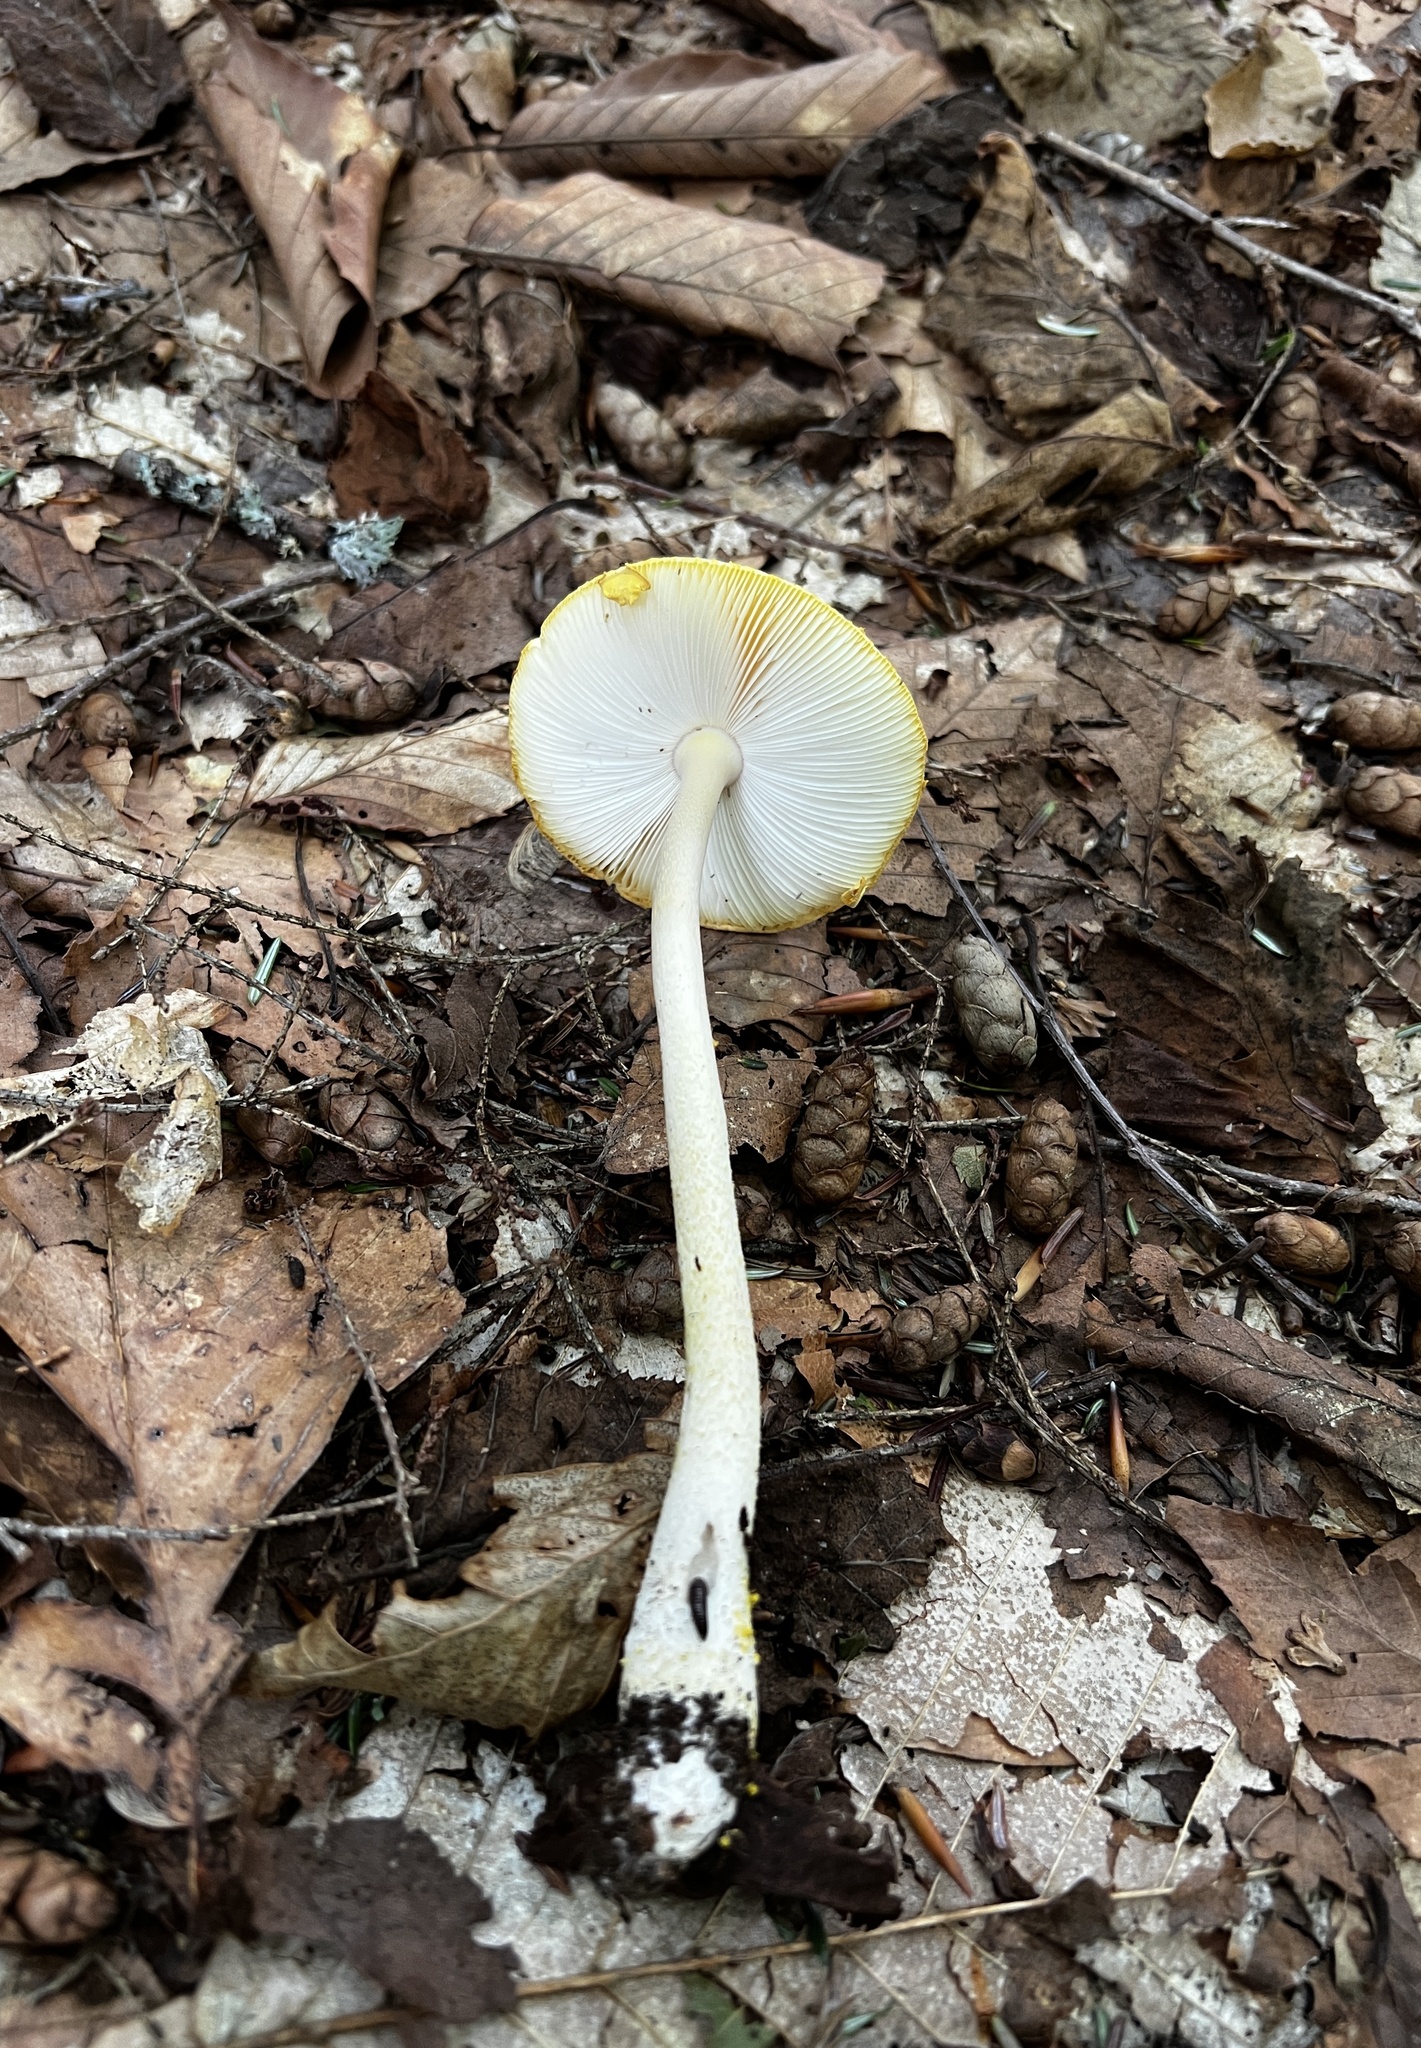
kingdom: Fungi
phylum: Basidiomycota
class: Agaricomycetes
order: Agaricales
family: Amanitaceae
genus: Amanita
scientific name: Amanita elongata
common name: Peck's yellow dust amanita
